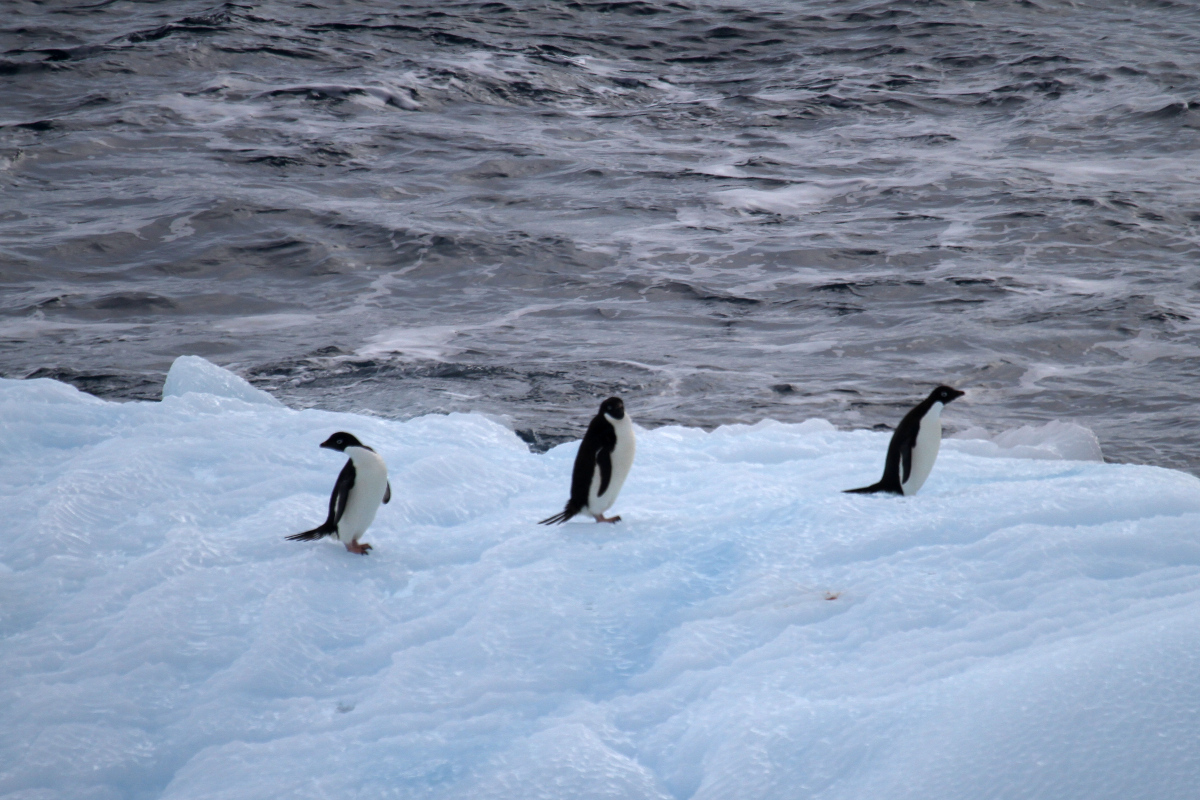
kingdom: Animalia
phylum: Chordata
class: Aves
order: Sphenisciformes
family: Spheniscidae
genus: Pygoscelis
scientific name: Pygoscelis adeliae
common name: Adelie penguin
